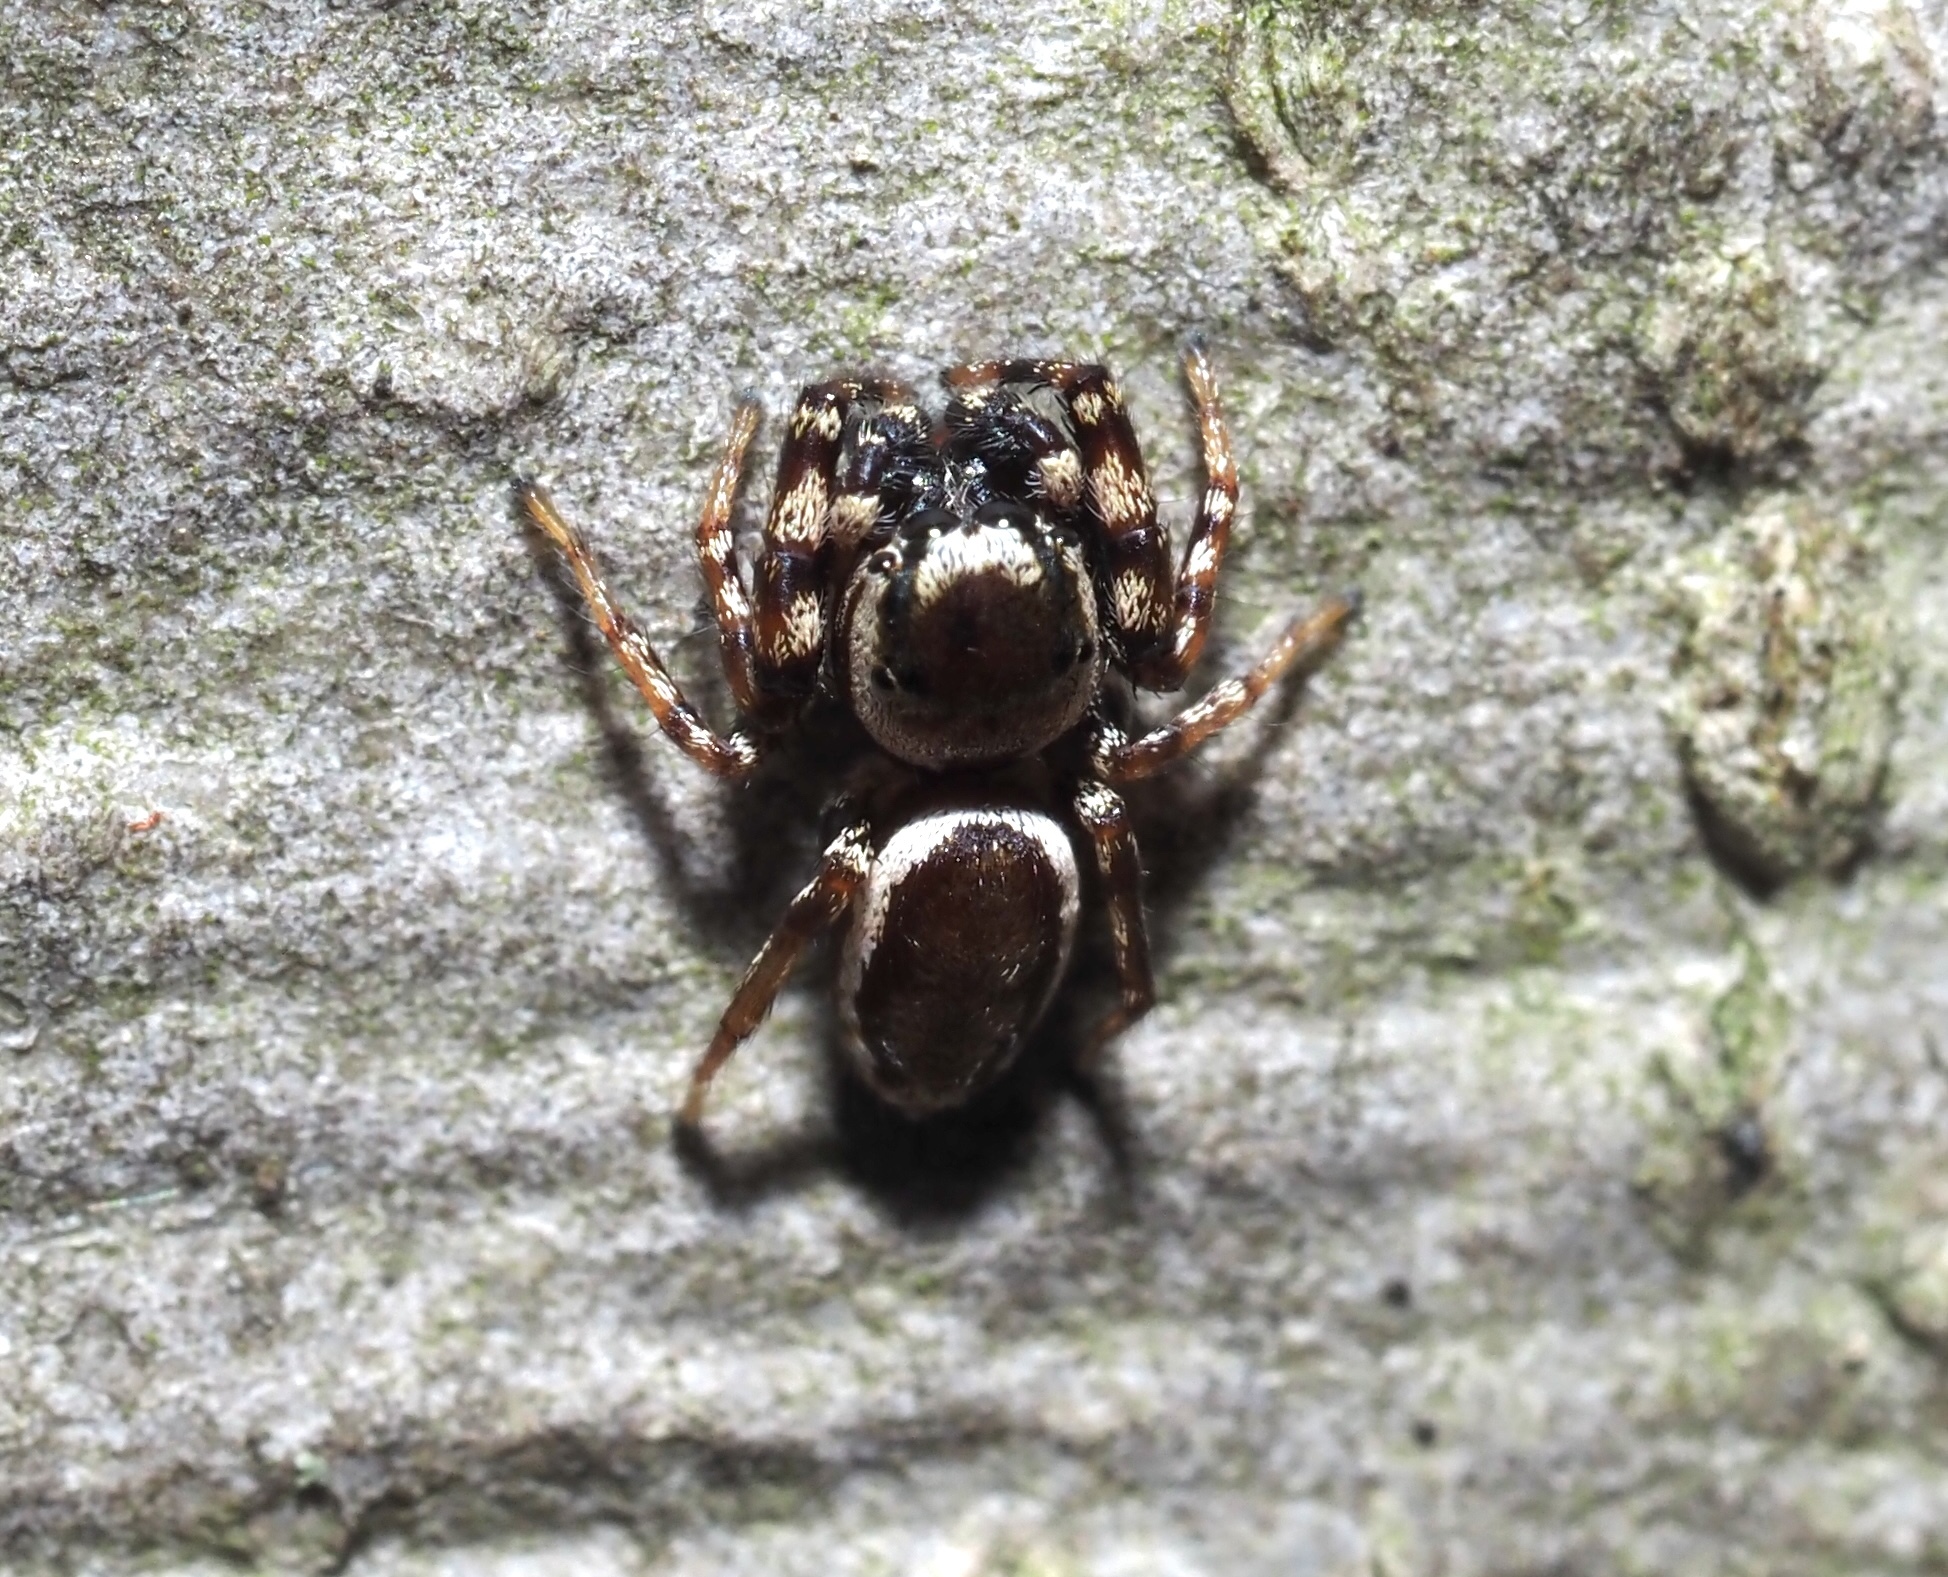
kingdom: Animalia
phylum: Arthropoda
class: Arachnida
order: Araneae
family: Salticidae
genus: Pelegrina
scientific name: Pelegrina proterva
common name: Common white-cheeked jumping spider
